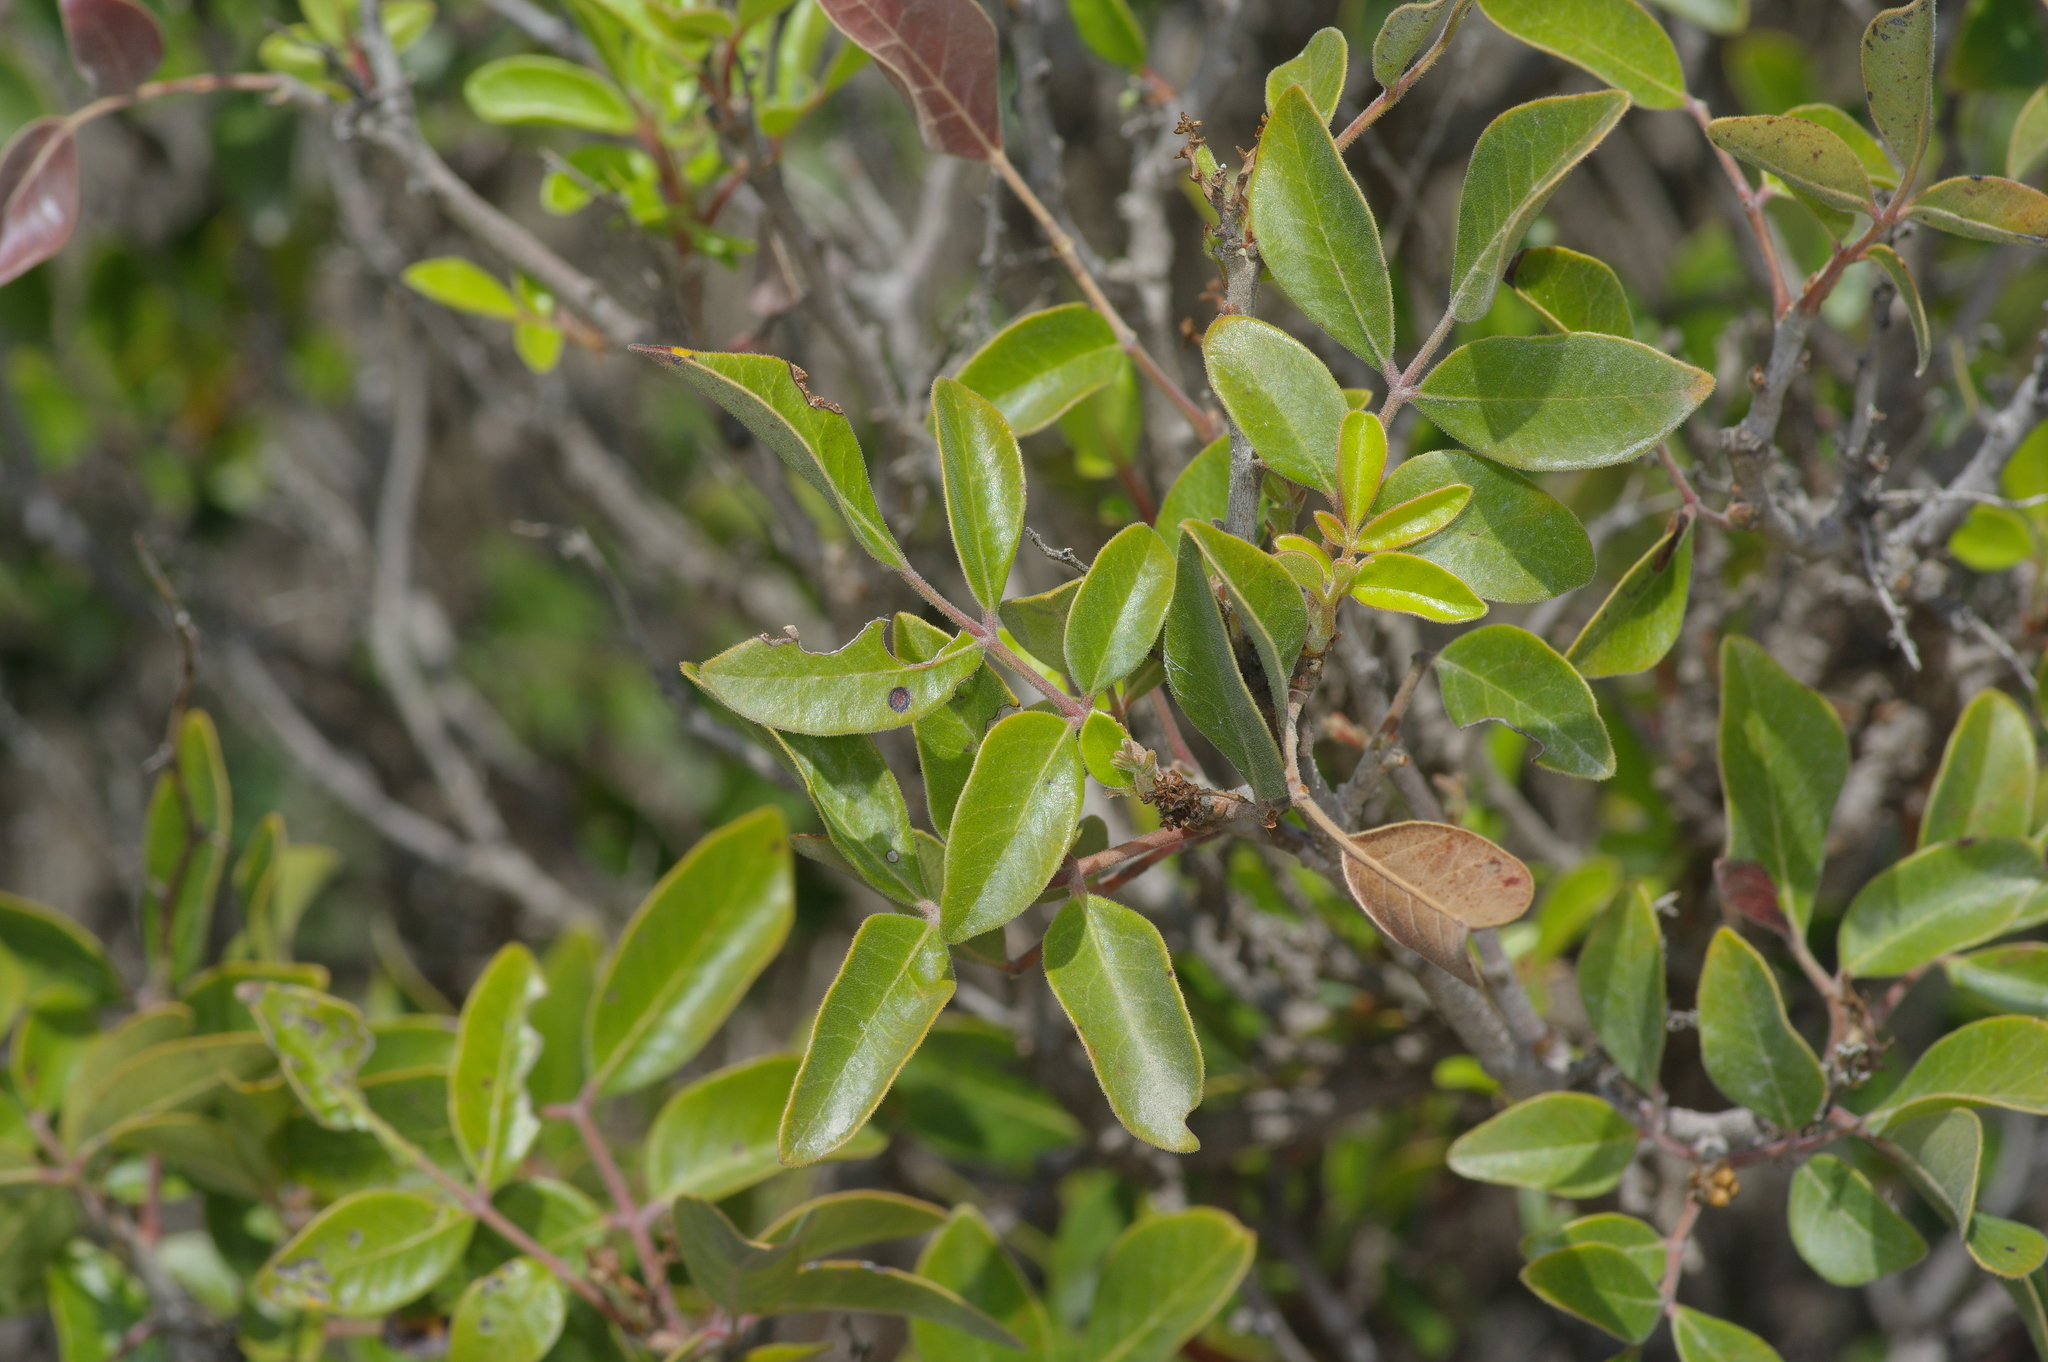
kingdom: Plantae
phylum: Tracheophyta
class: Magnoliopsida
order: Sapindales
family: Anacardiaceae
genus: Rhus
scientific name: Rhus virens
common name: Evergreen sumac
